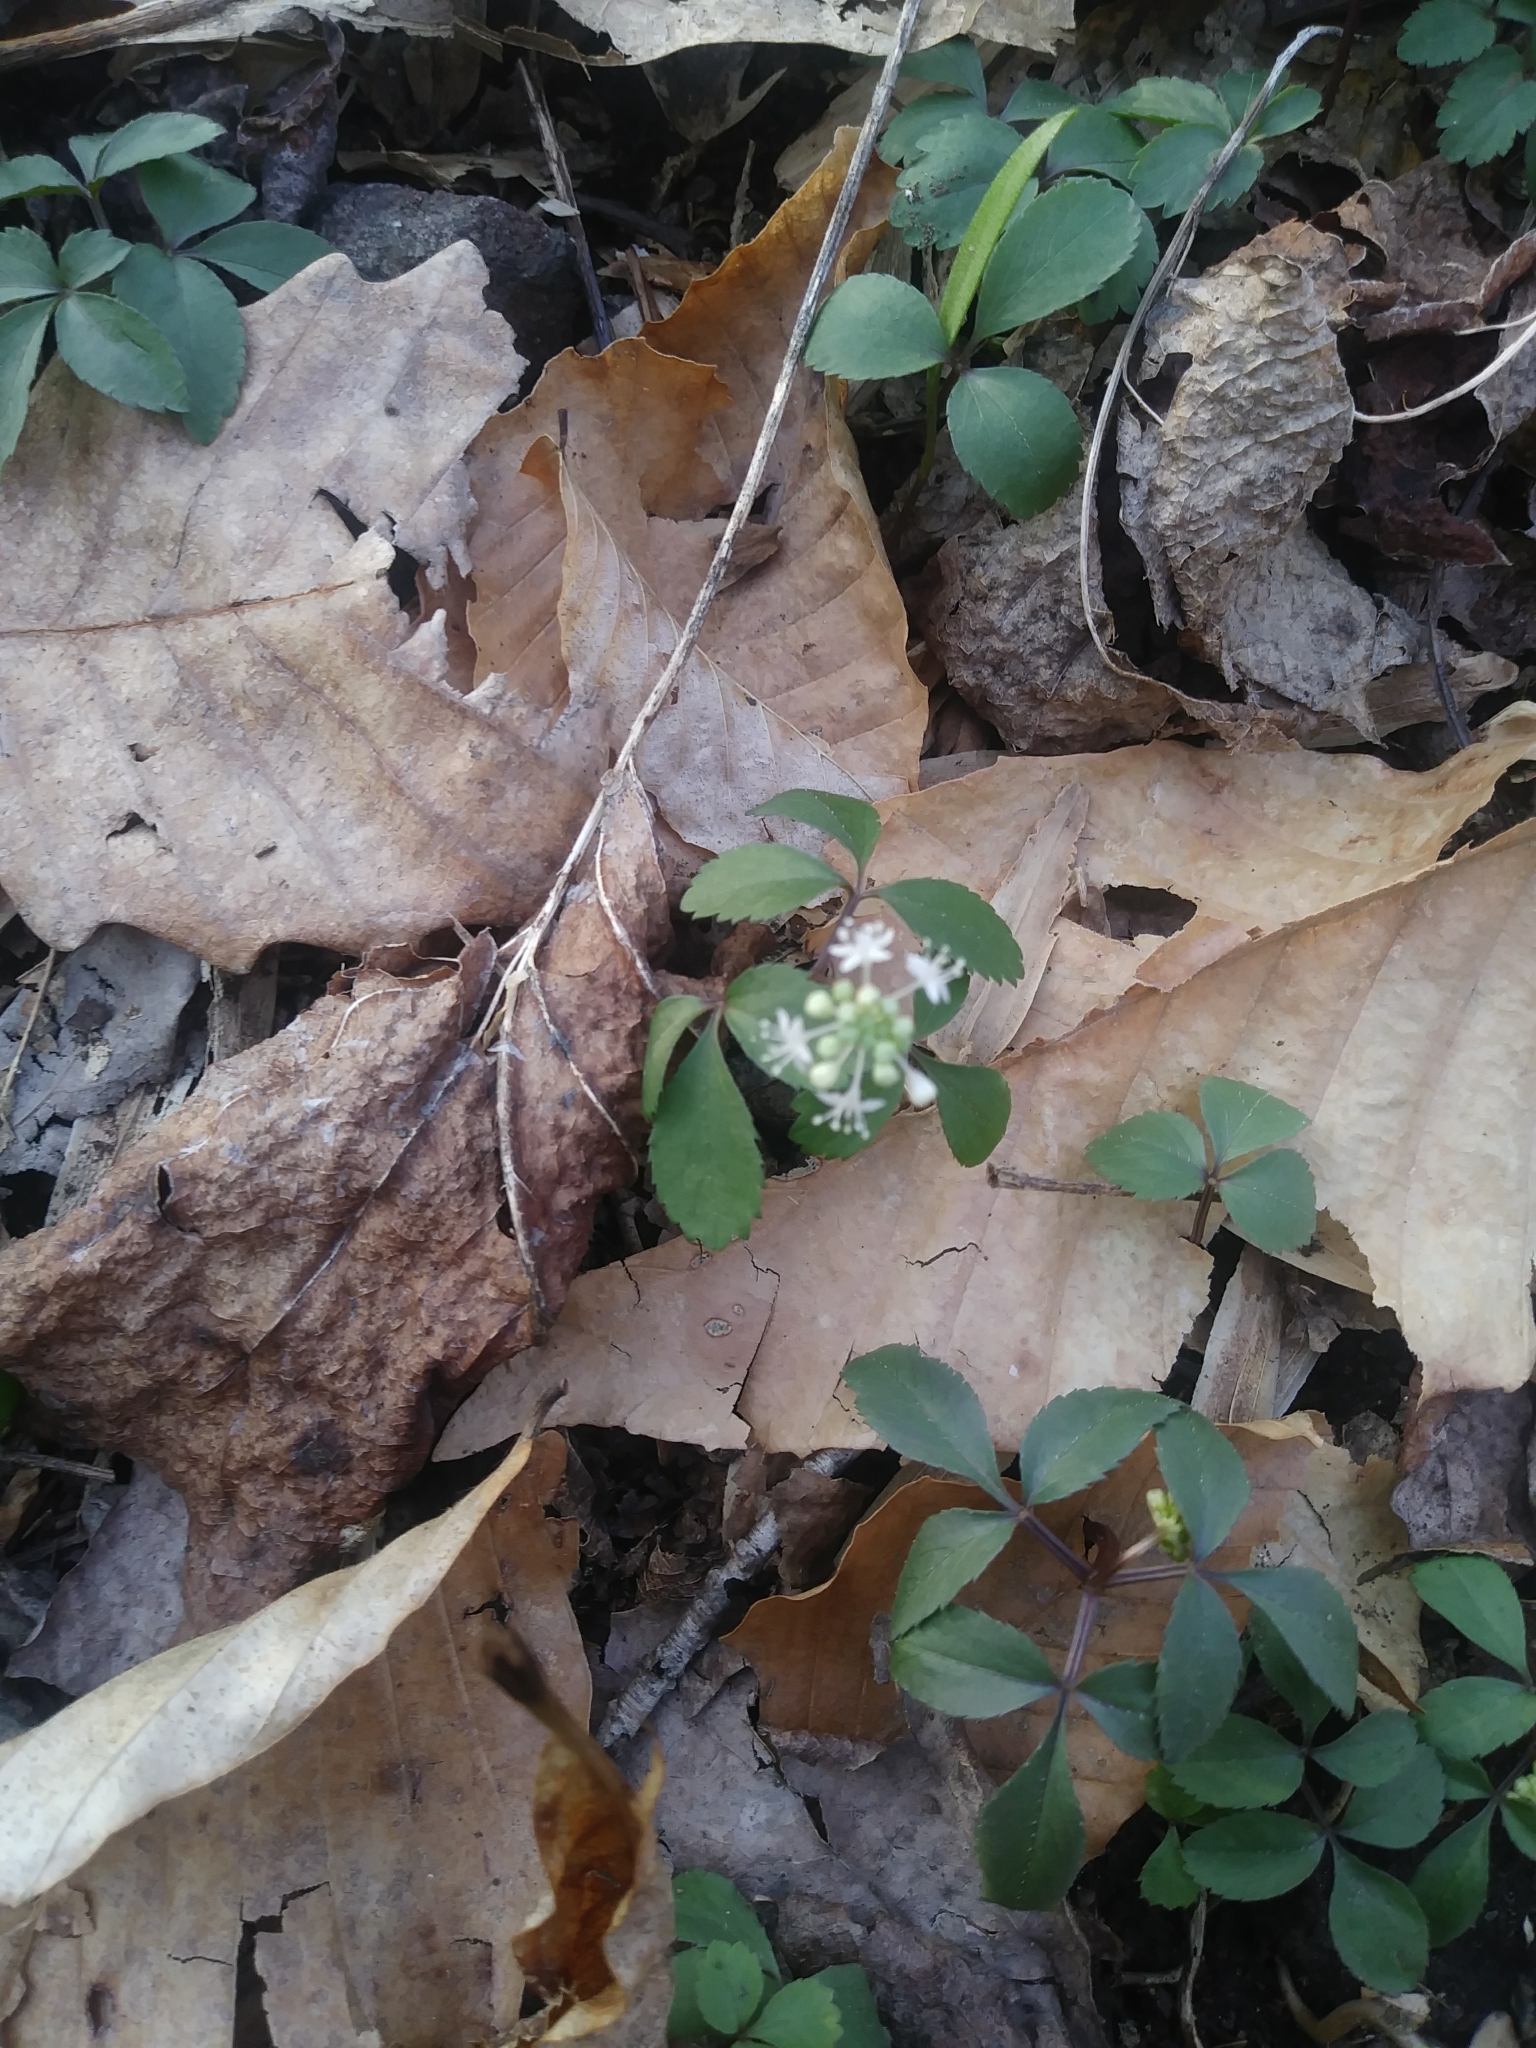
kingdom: Plantae
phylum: Tracheophyta
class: Magnoliopsida
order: Apiales
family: Araliaceae
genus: Panax
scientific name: Panax trifolius
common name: Dwarf ginseng
